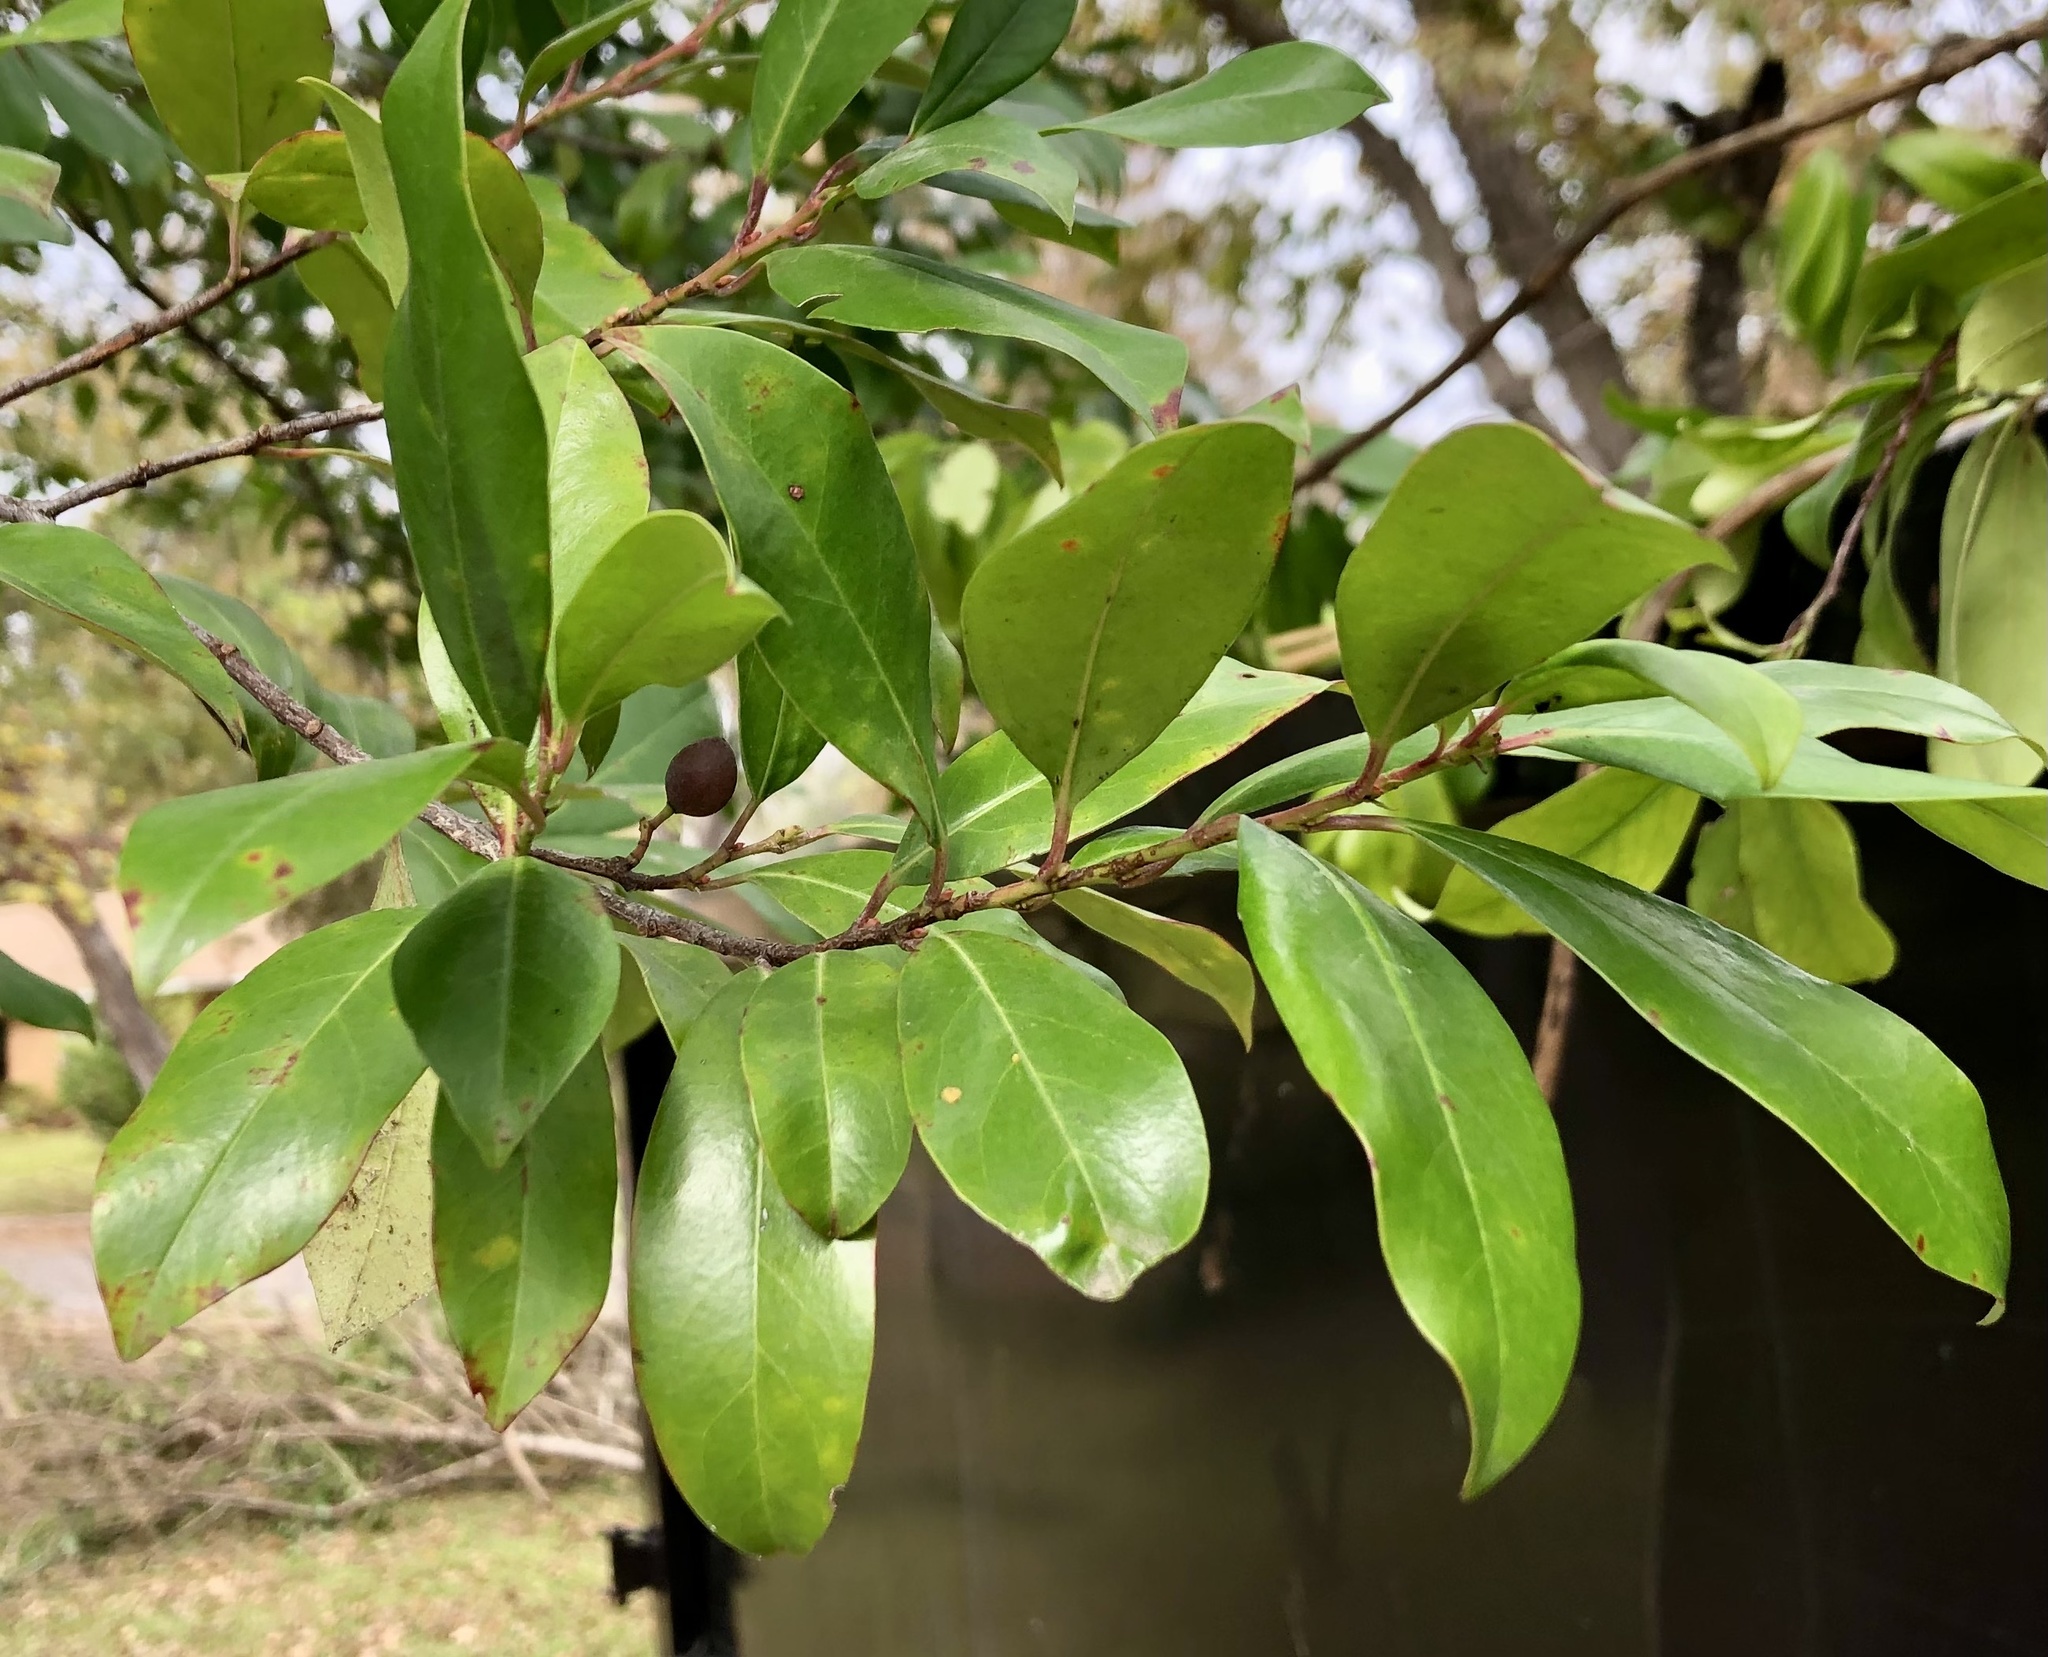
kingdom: Plantae
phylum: Tracheophyta
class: Magnoliopsida
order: Rosales
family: Rosaceae
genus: Prunus
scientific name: Prunus caroliniana
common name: Carolina laurel cherry
